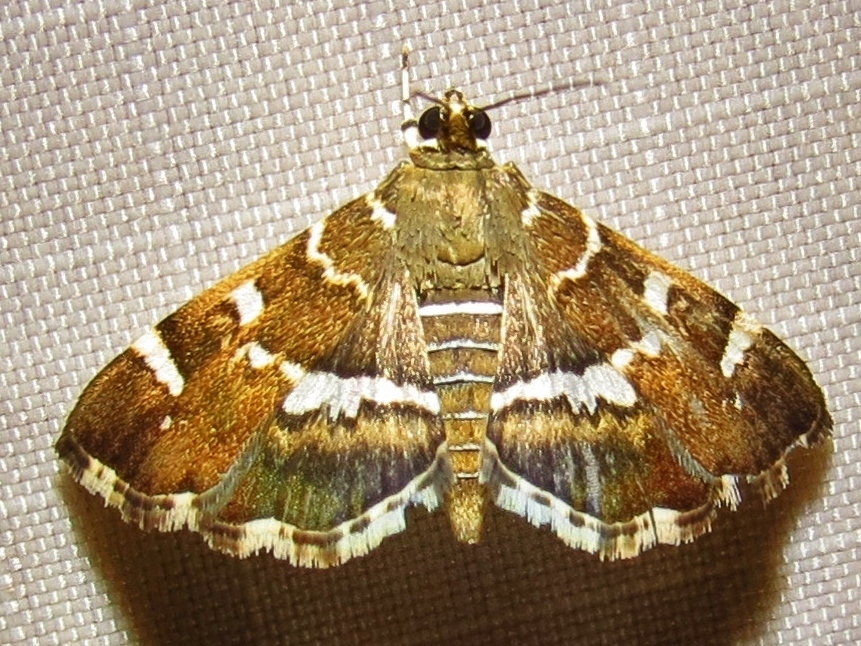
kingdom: Animalia
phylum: Arthropoda
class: Insecta
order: Lepidoptera
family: Crambidae
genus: Hymenia
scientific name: Hymenia perspectalis
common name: Spotted beet webworm
